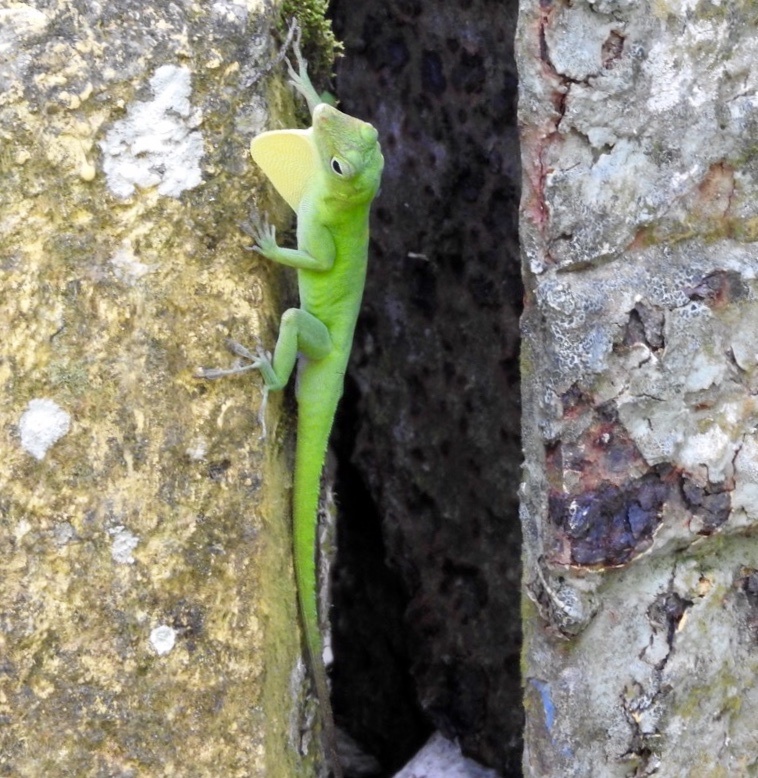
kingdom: Animalia
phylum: Chordata
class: Squamata
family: Dactyloidae
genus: Anolis
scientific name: Anolis evermanni
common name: Emerald anole
